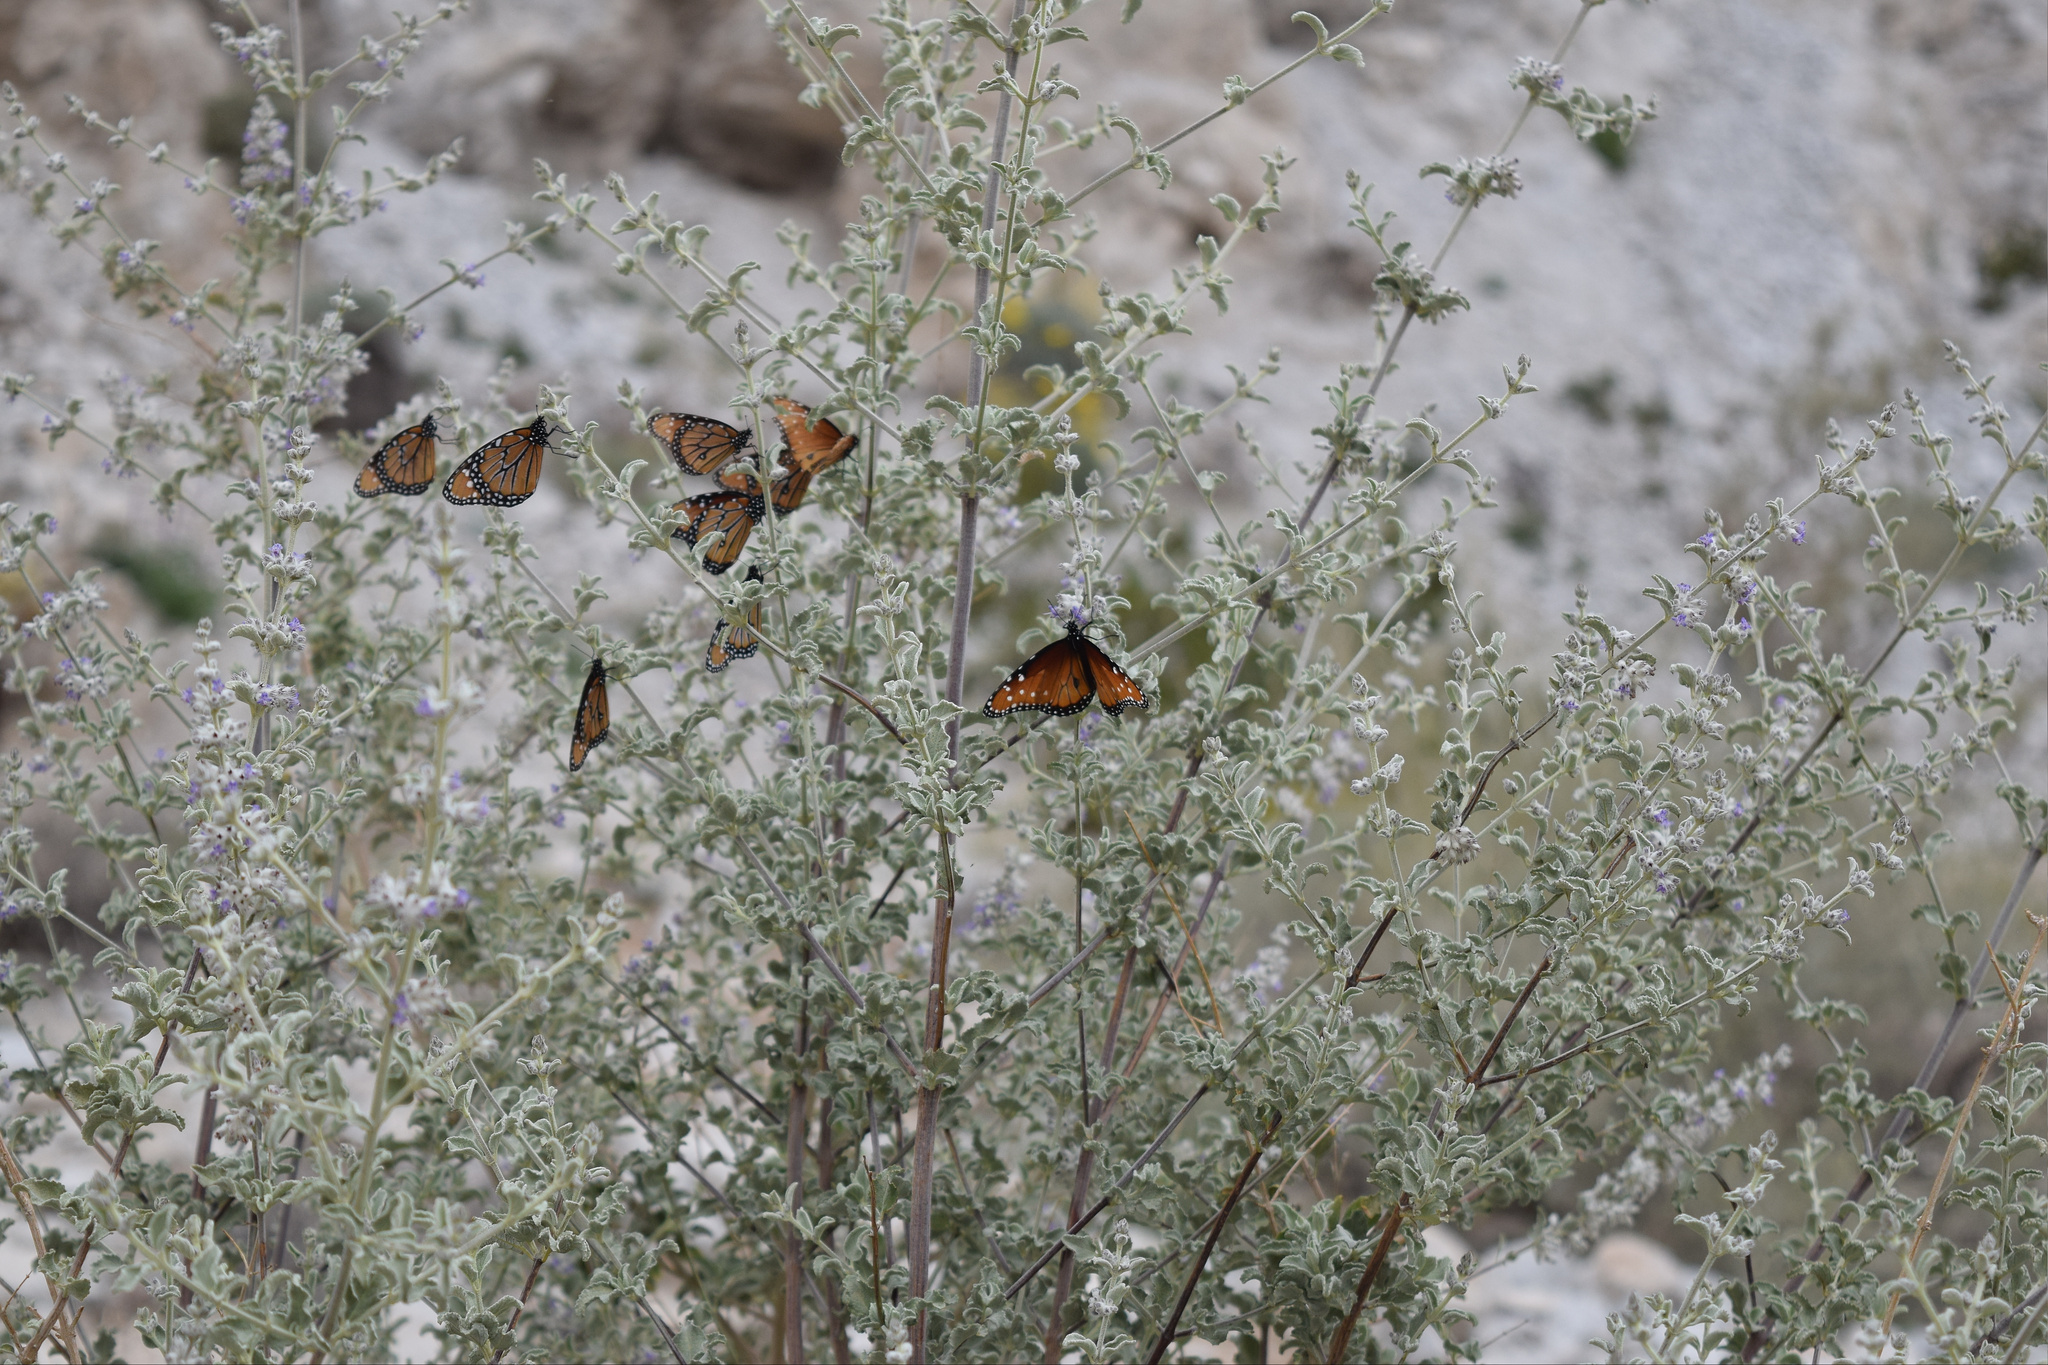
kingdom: Animalia
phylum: Arthropoda
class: Insecta
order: Lepidoptera
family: Nymphalidae
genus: Danaus
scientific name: Danaus gilippus
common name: Queen
